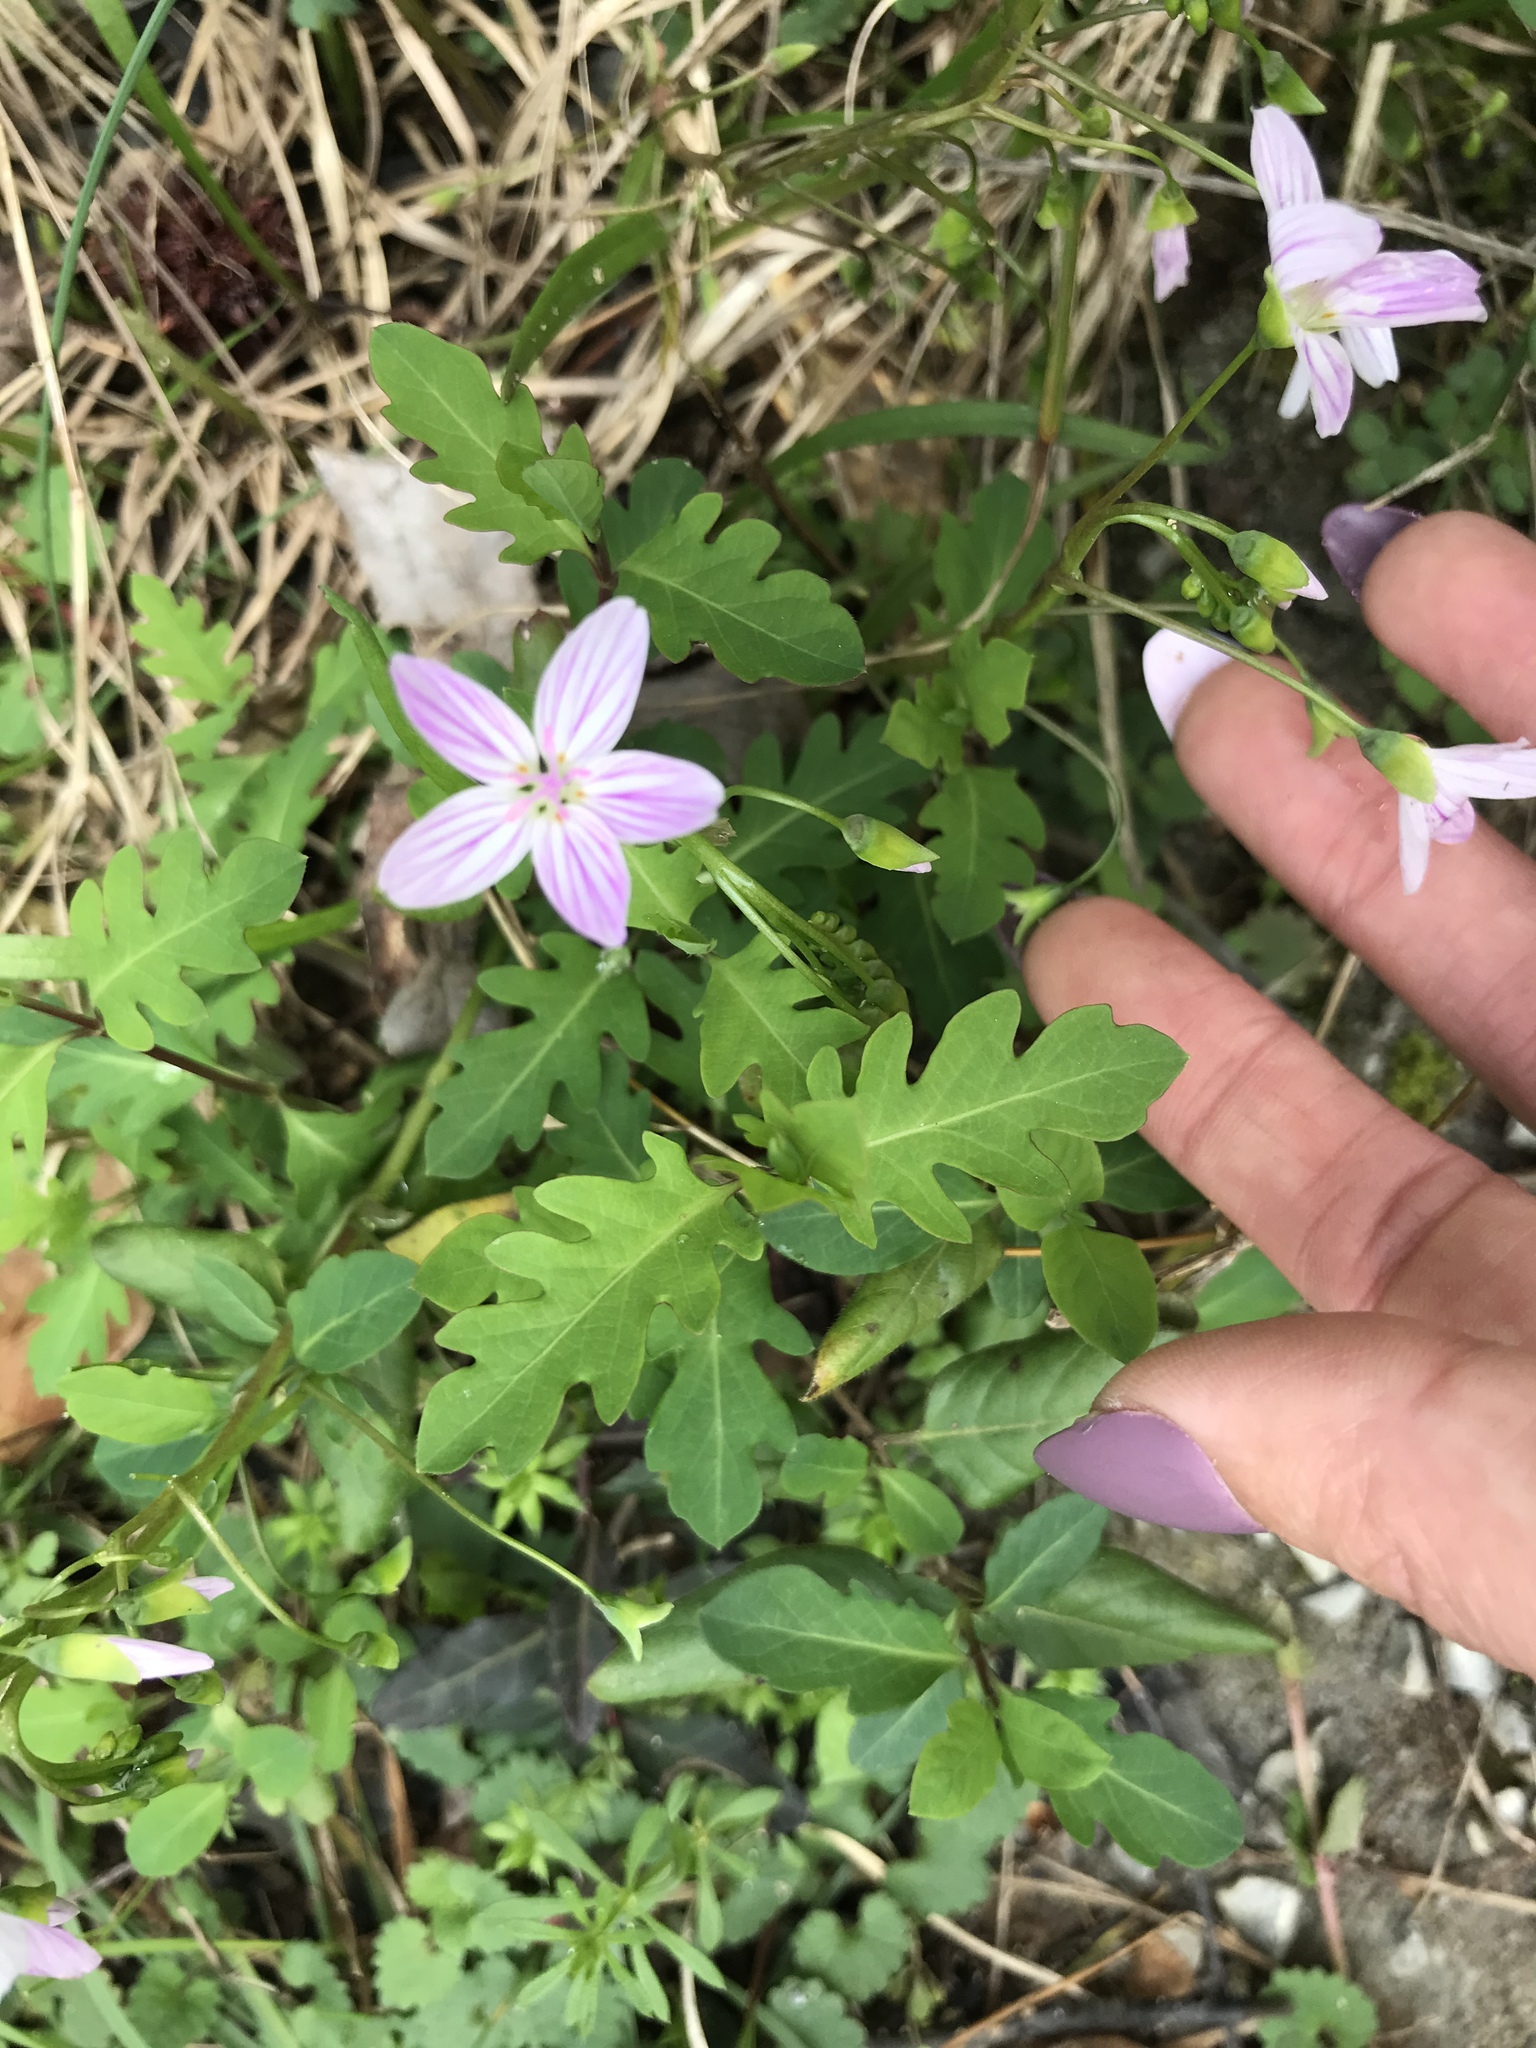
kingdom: Plantae
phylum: Tracheophyta
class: Magnoliopsida
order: Caryophyllales
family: Montiaceae
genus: Claytonia
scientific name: Claytonia virginica
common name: Virginia springbeauty
